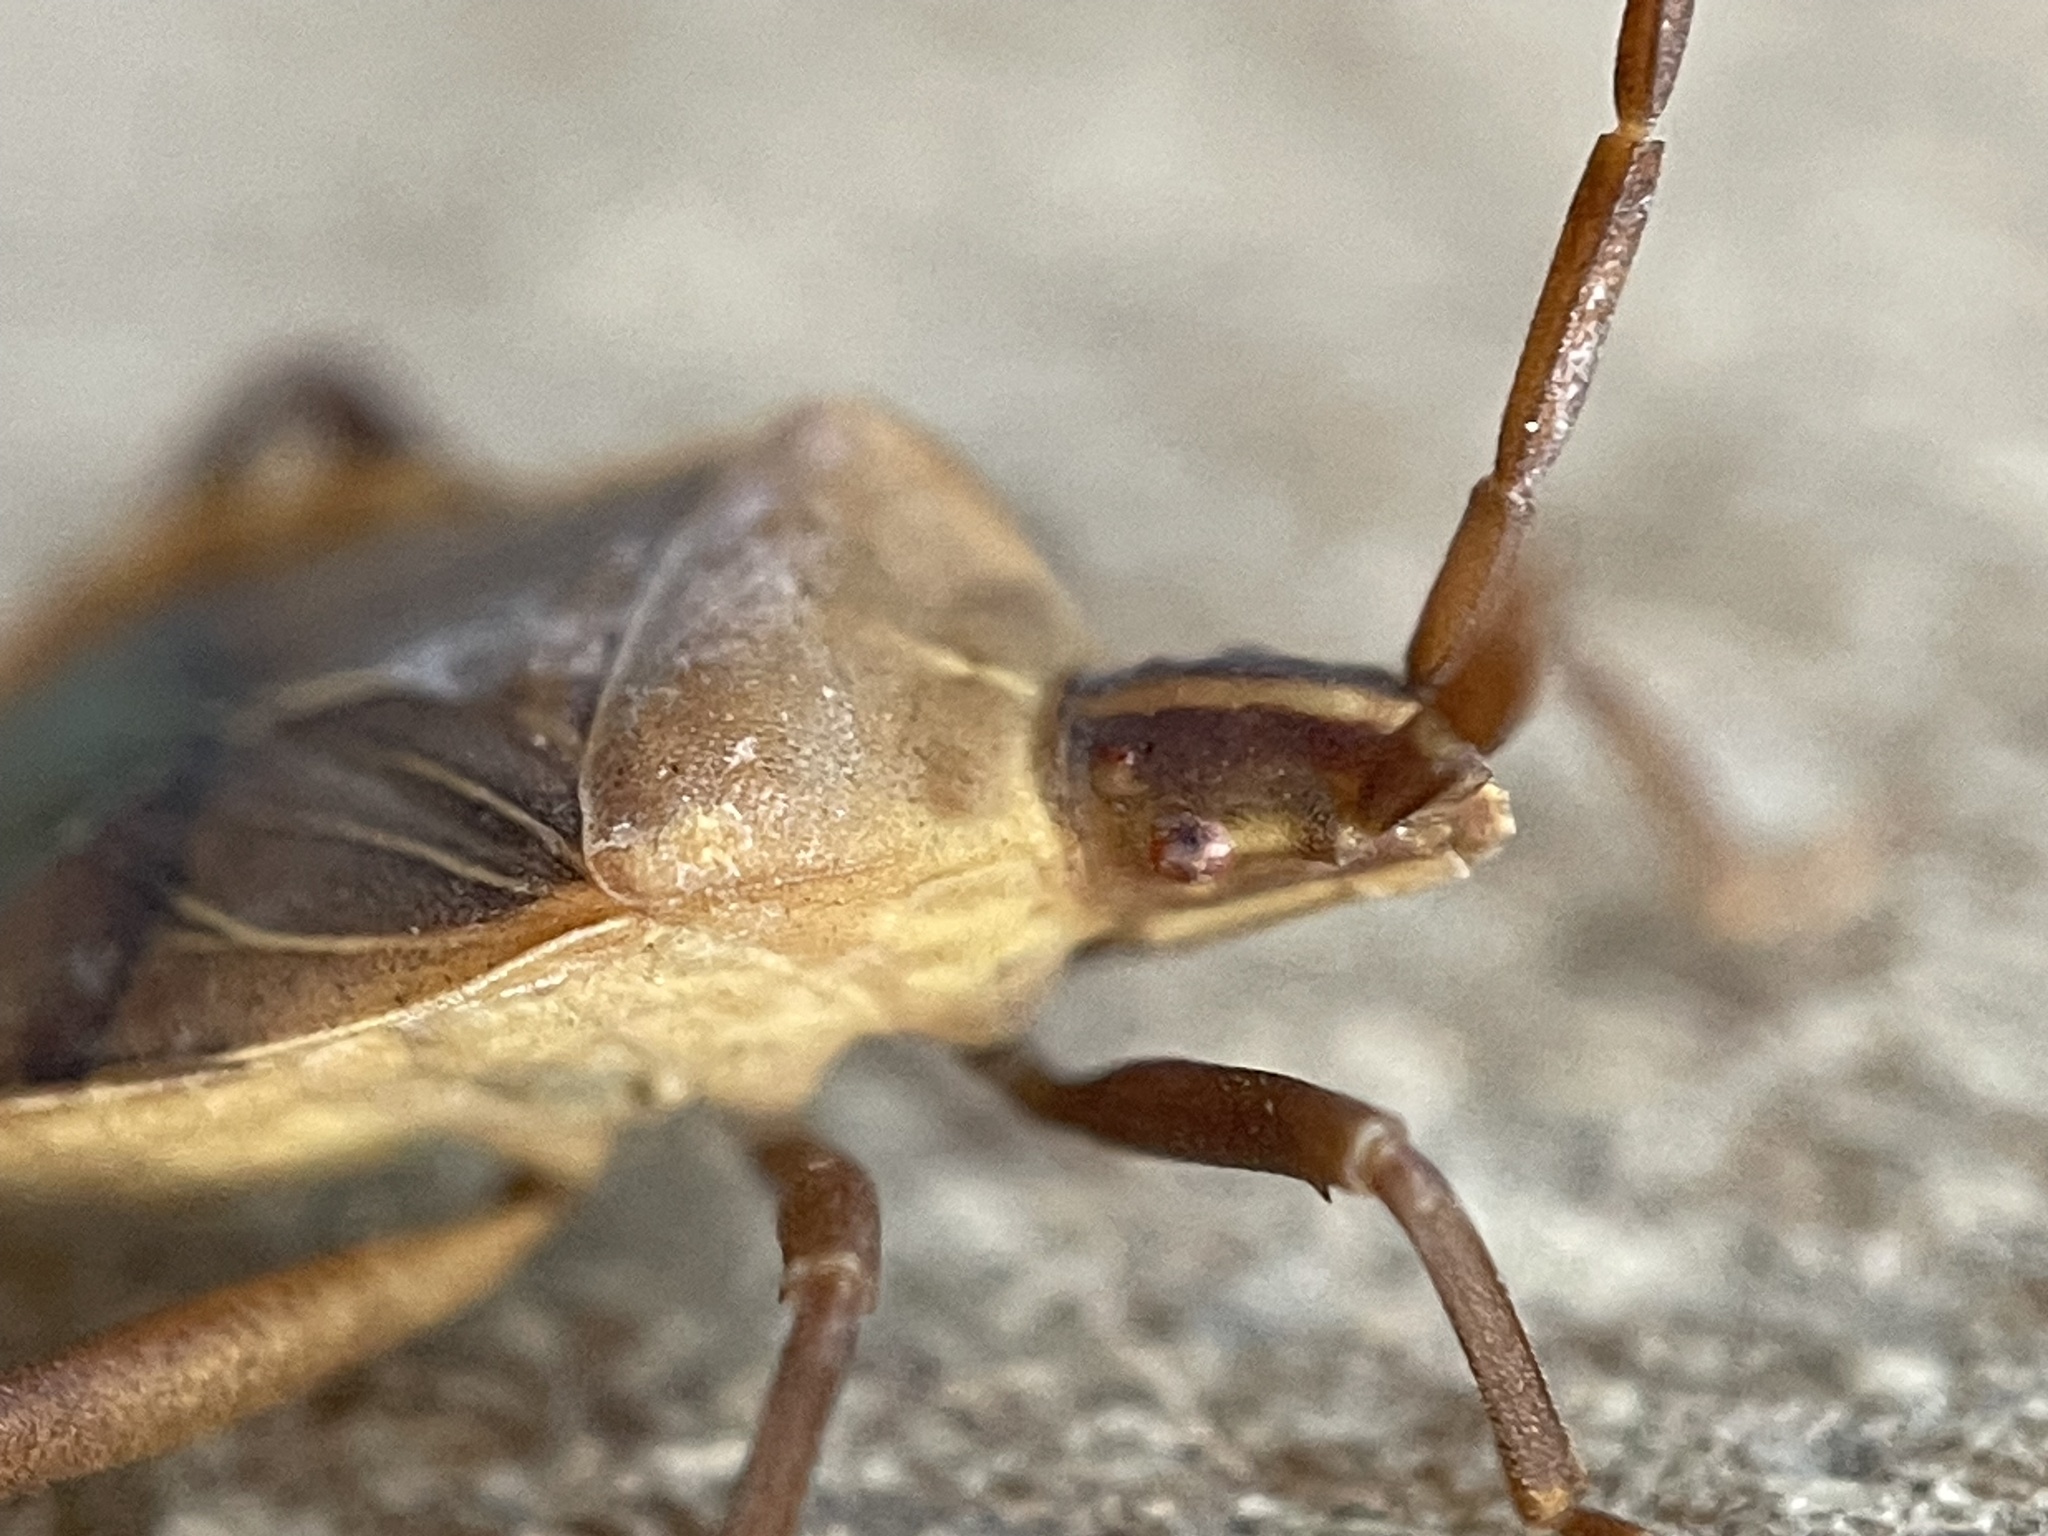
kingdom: Animalia
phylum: Arthropoda
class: Insecta
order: Hemiptera
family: Coreidae
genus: Chelinidea
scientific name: Chelinidea vittiger
